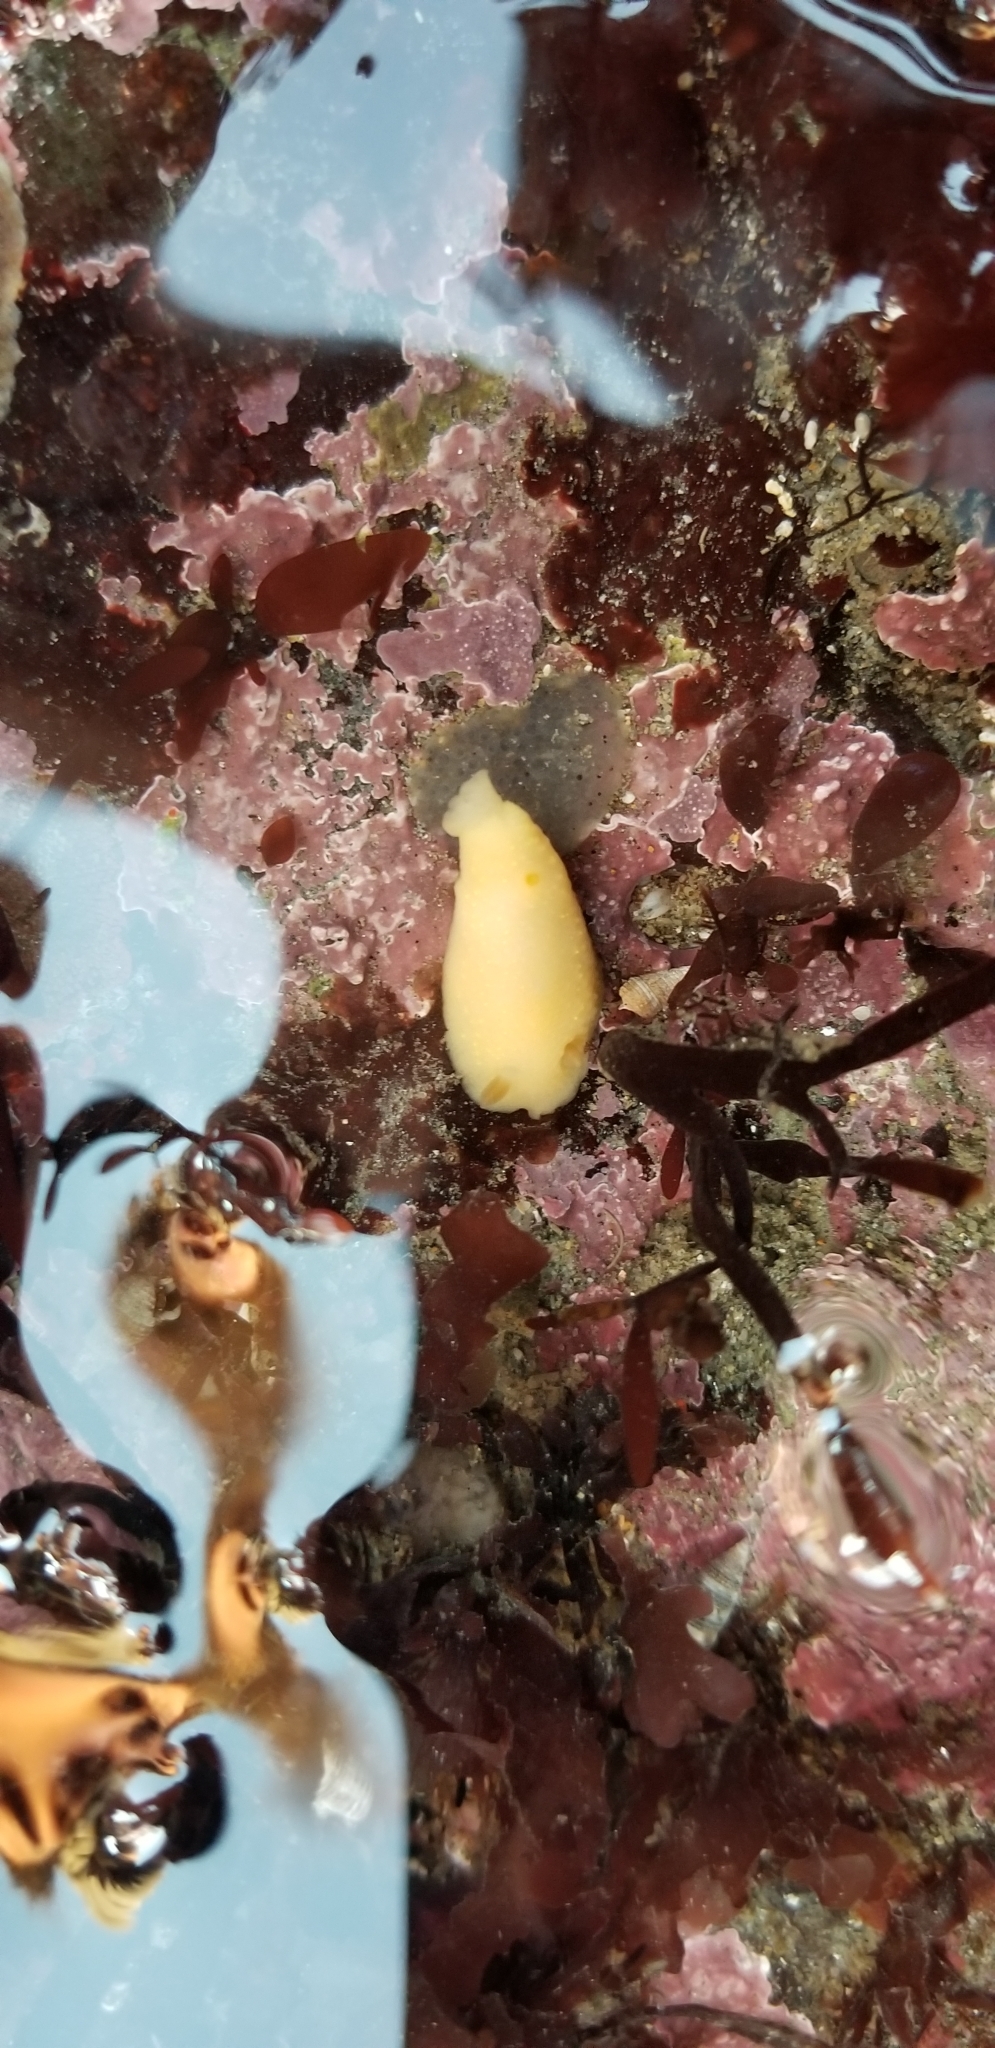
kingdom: Animalia
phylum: Mollusca
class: Gastropoda
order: Nudibranchia
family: Cadlinidae
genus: Cadlina
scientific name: Cadlina modesta
